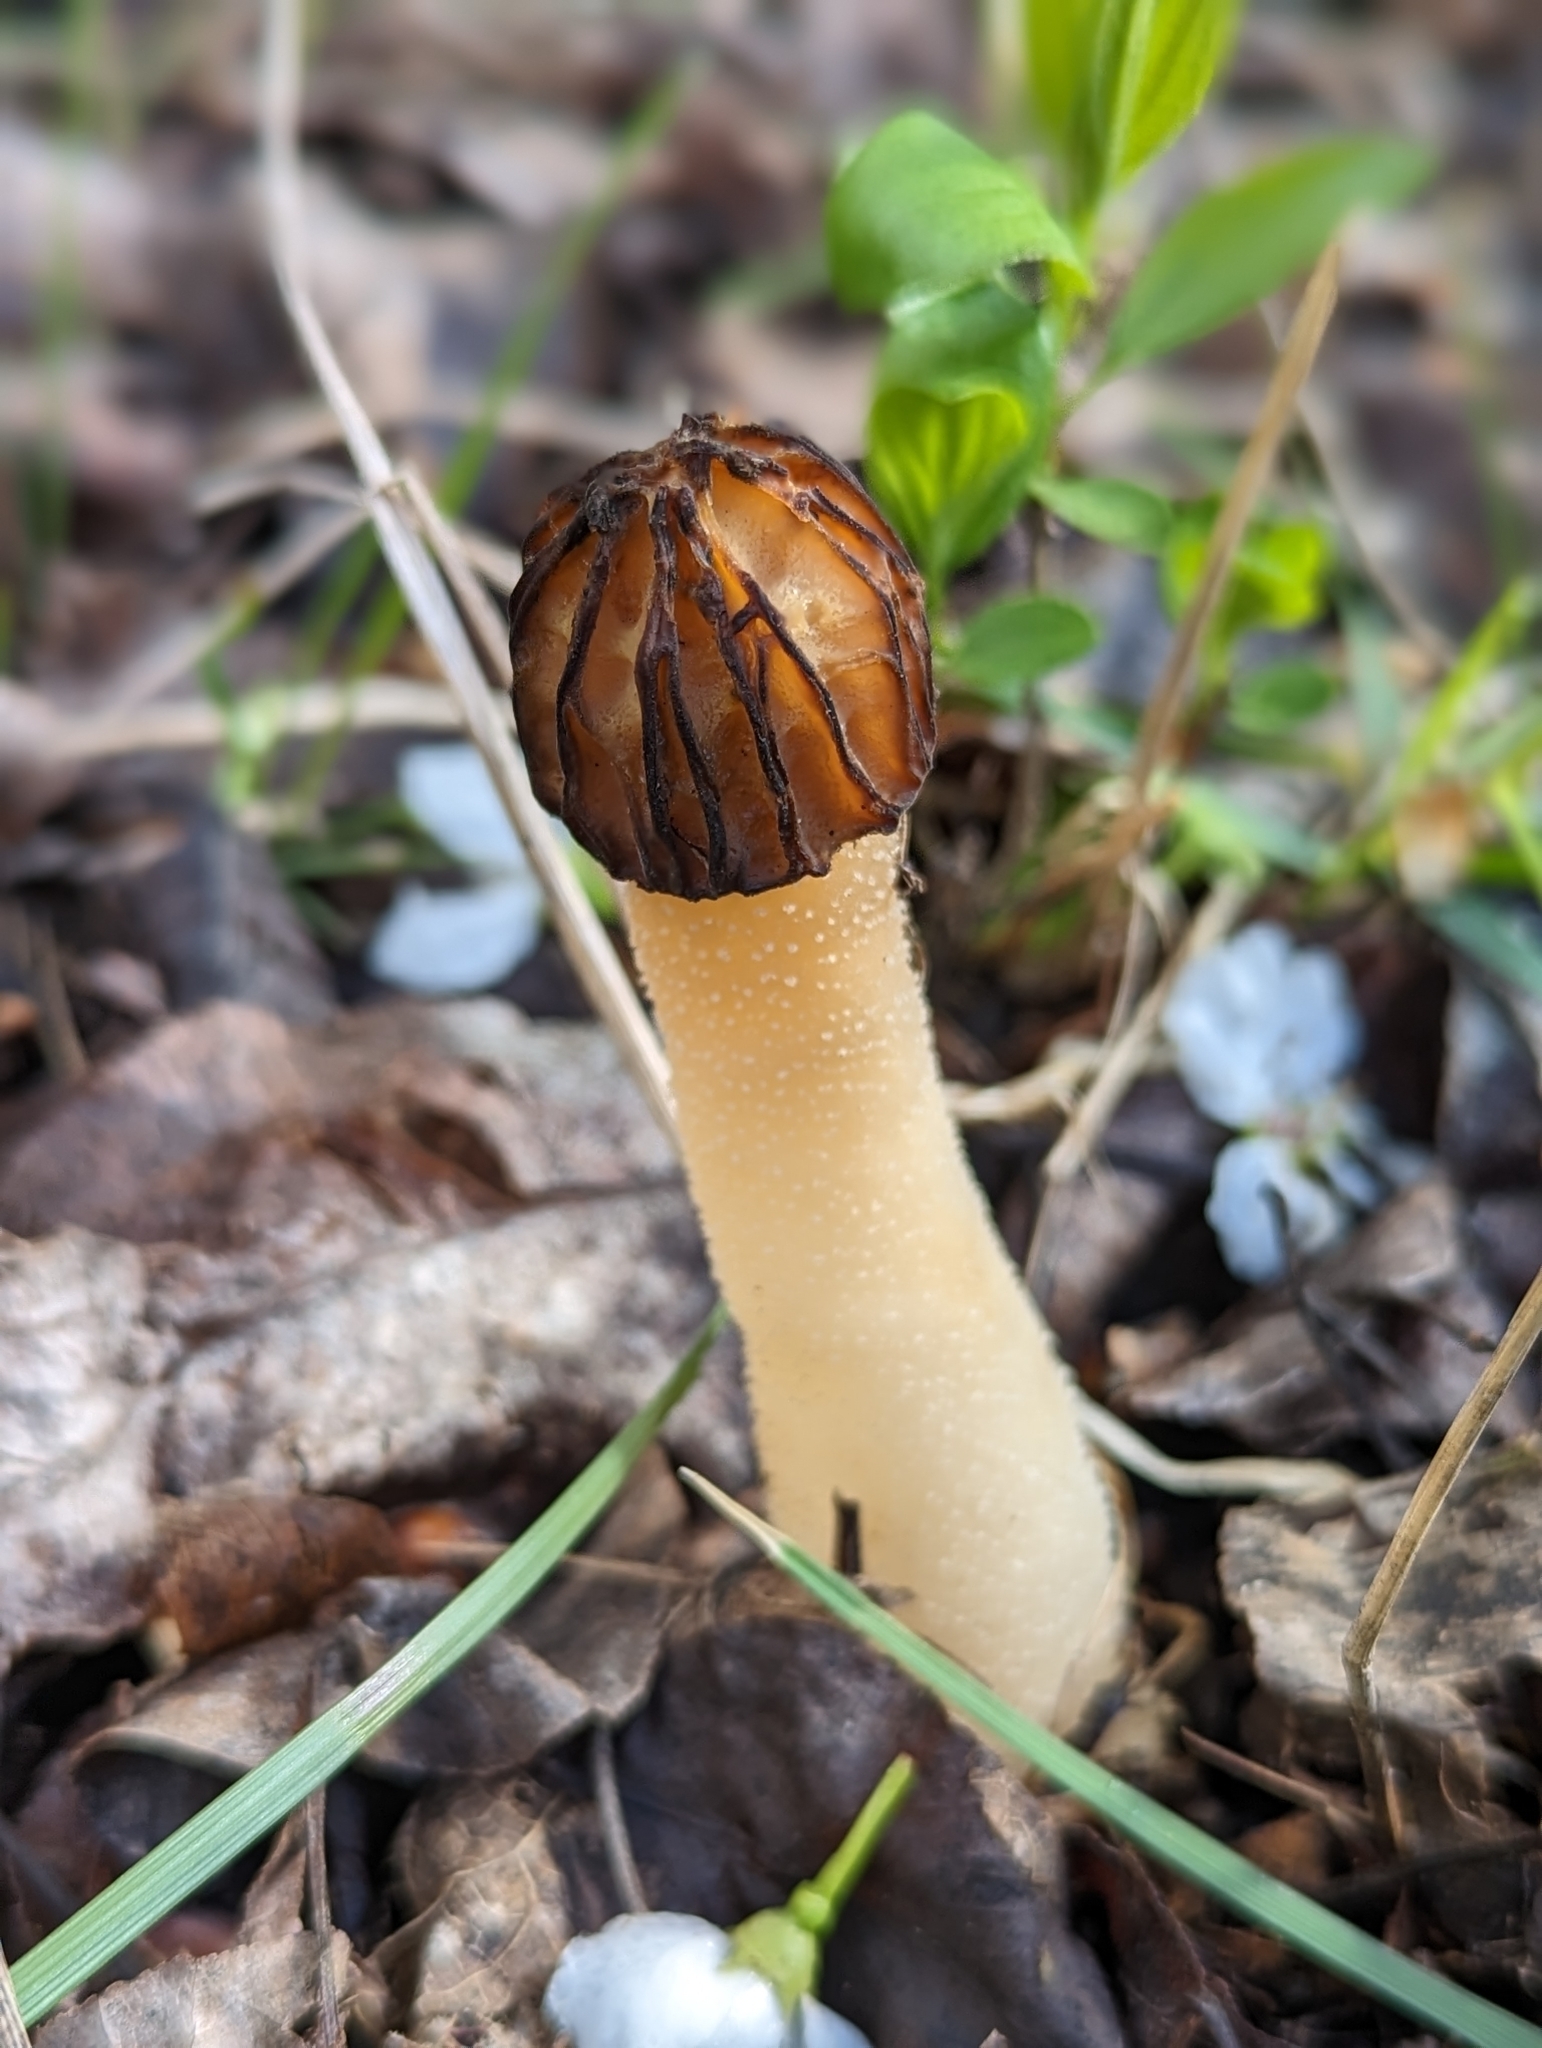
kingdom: Fungi
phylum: Ascomycota
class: Pezizomycetes
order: Pezizales
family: Morchellaceae
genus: Morchella
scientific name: Morchella punctipes
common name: Half-free morel
